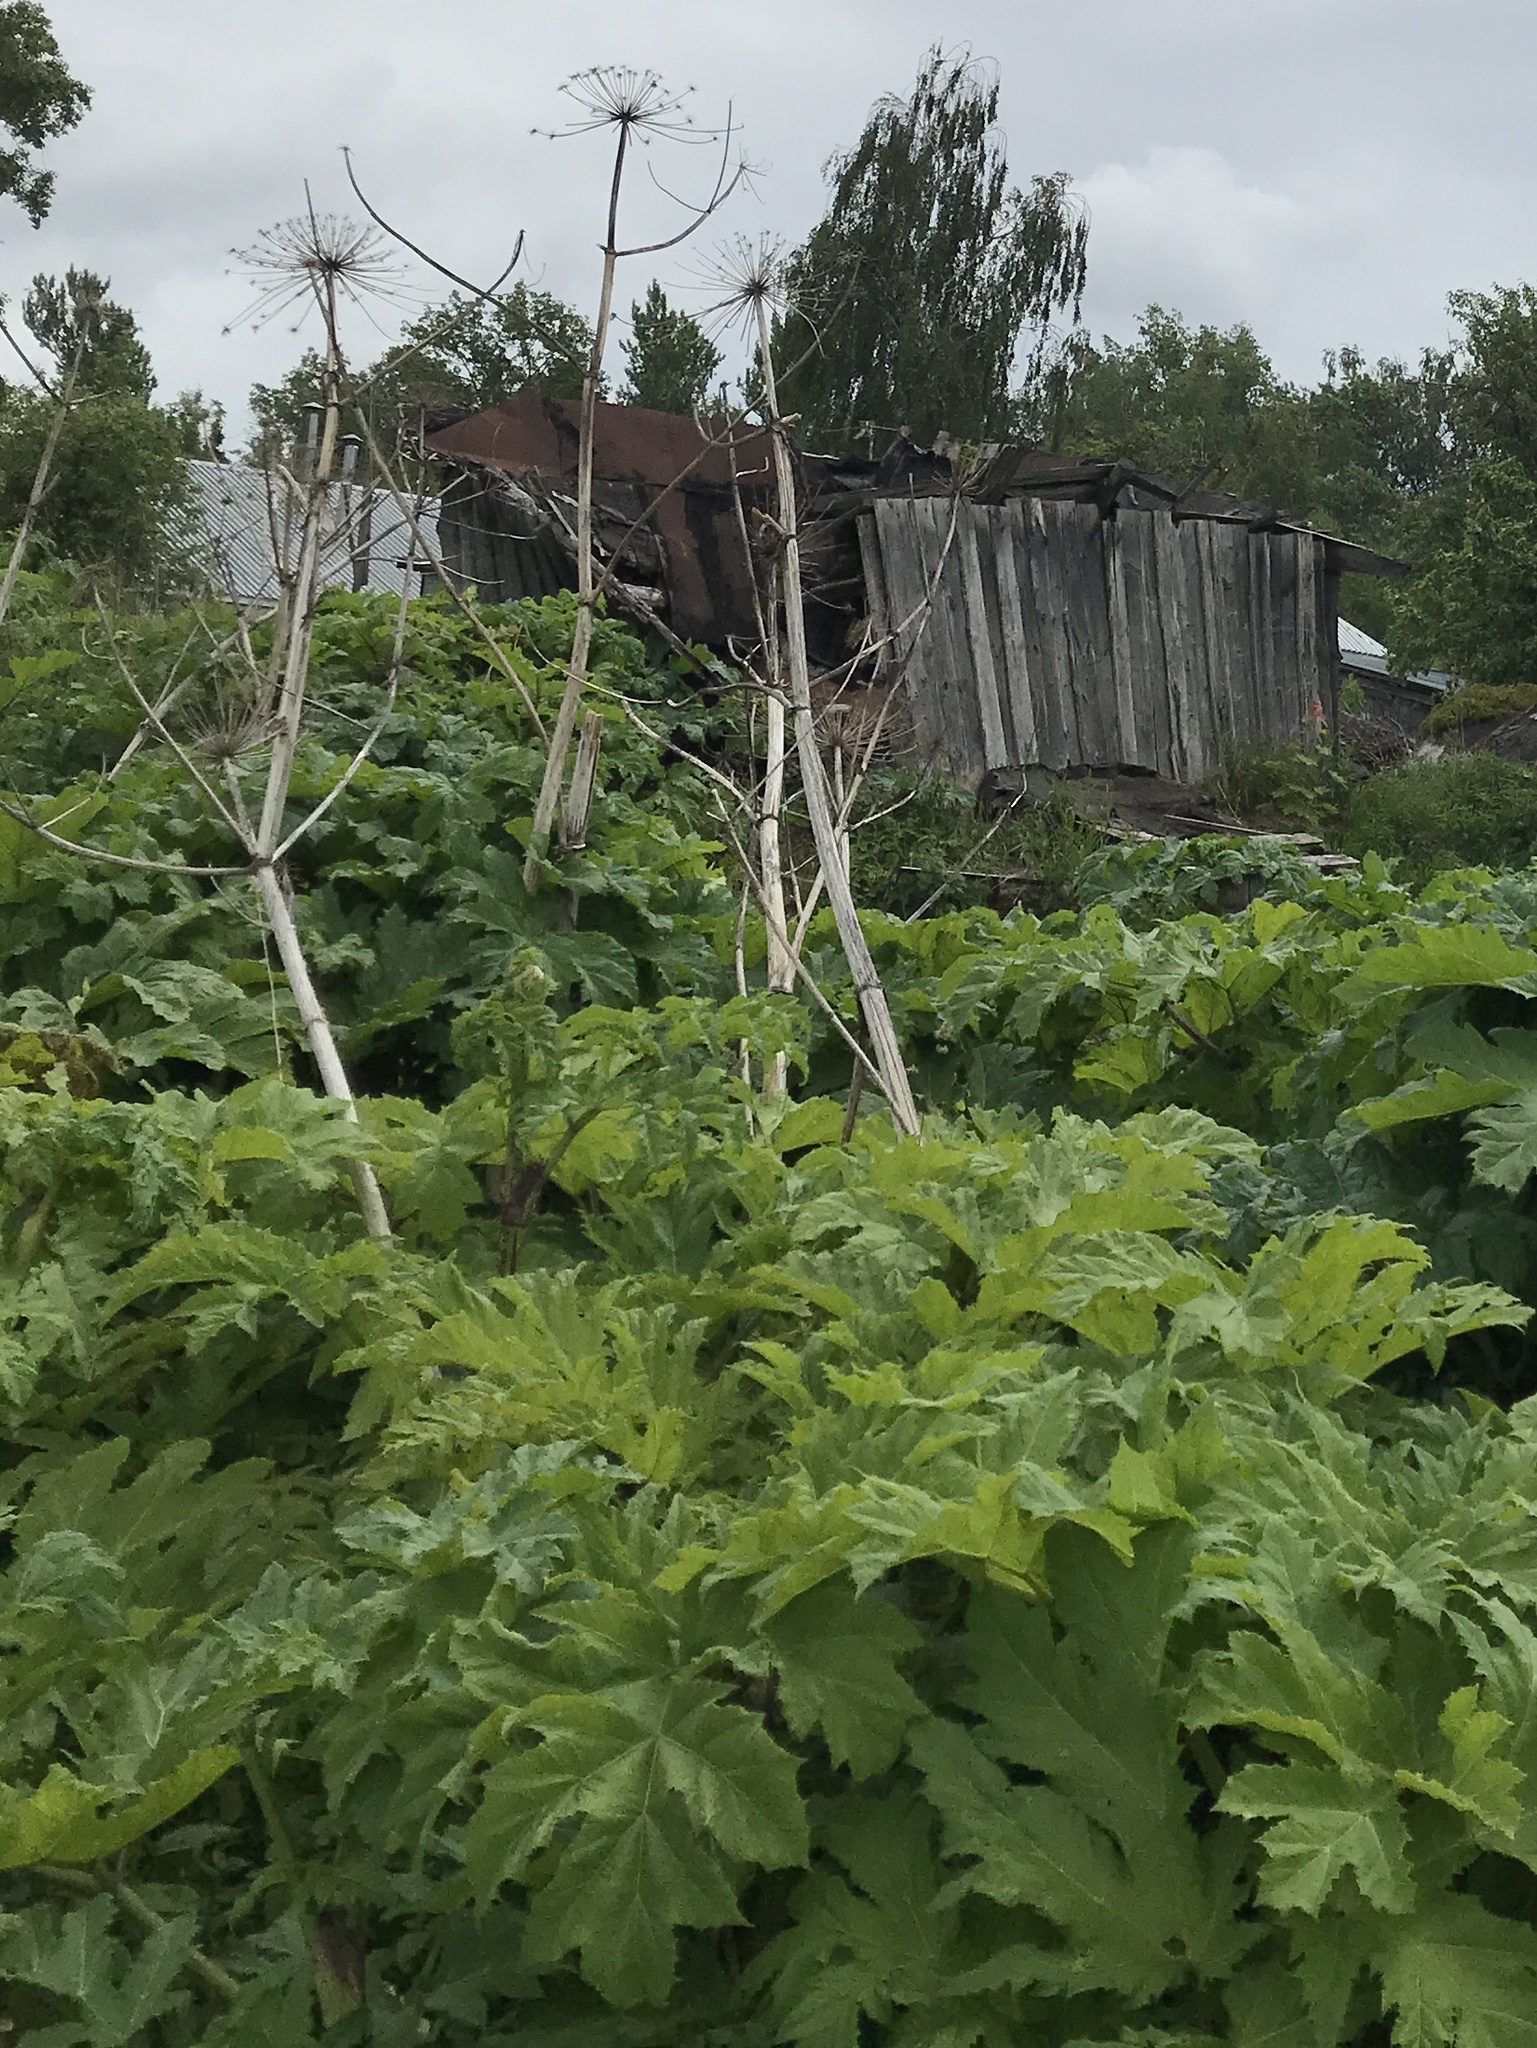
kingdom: Plantae
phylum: Tracheophyta
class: Magnoliopsida
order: Apiales
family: Apiaceae
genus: Heracleum
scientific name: Heracleum sosnowskyi
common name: Sosnowsky's hogweed
